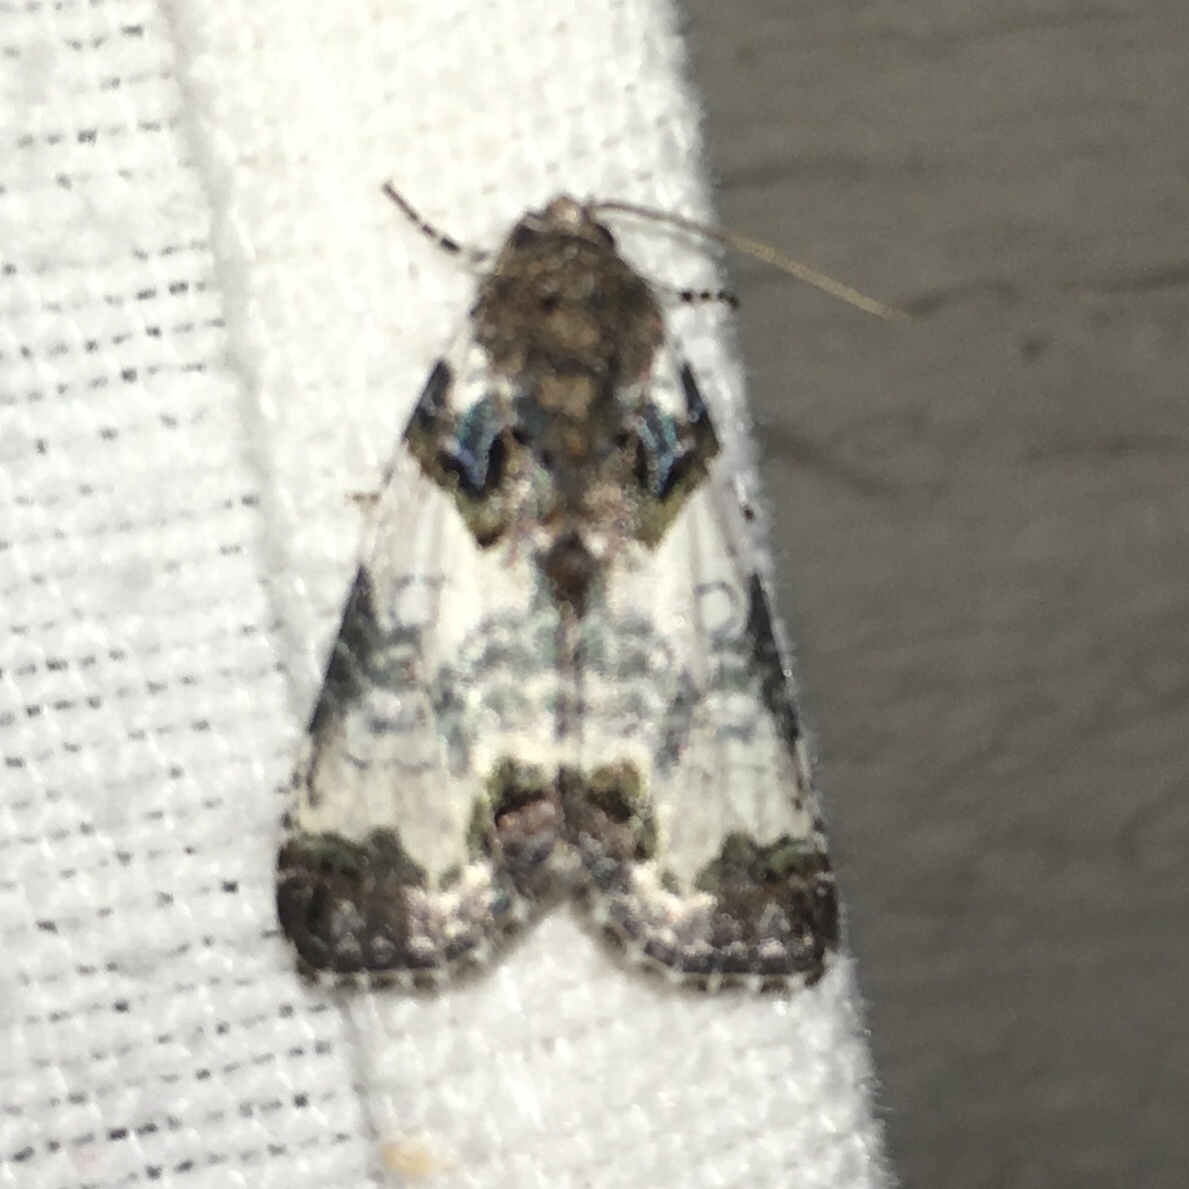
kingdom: Animalia
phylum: Arthropoda
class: Insecta
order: Lepidoptera
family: Noctuidae
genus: Cerma
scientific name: Cerma cerintha
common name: Tufted bird-dropping moth
